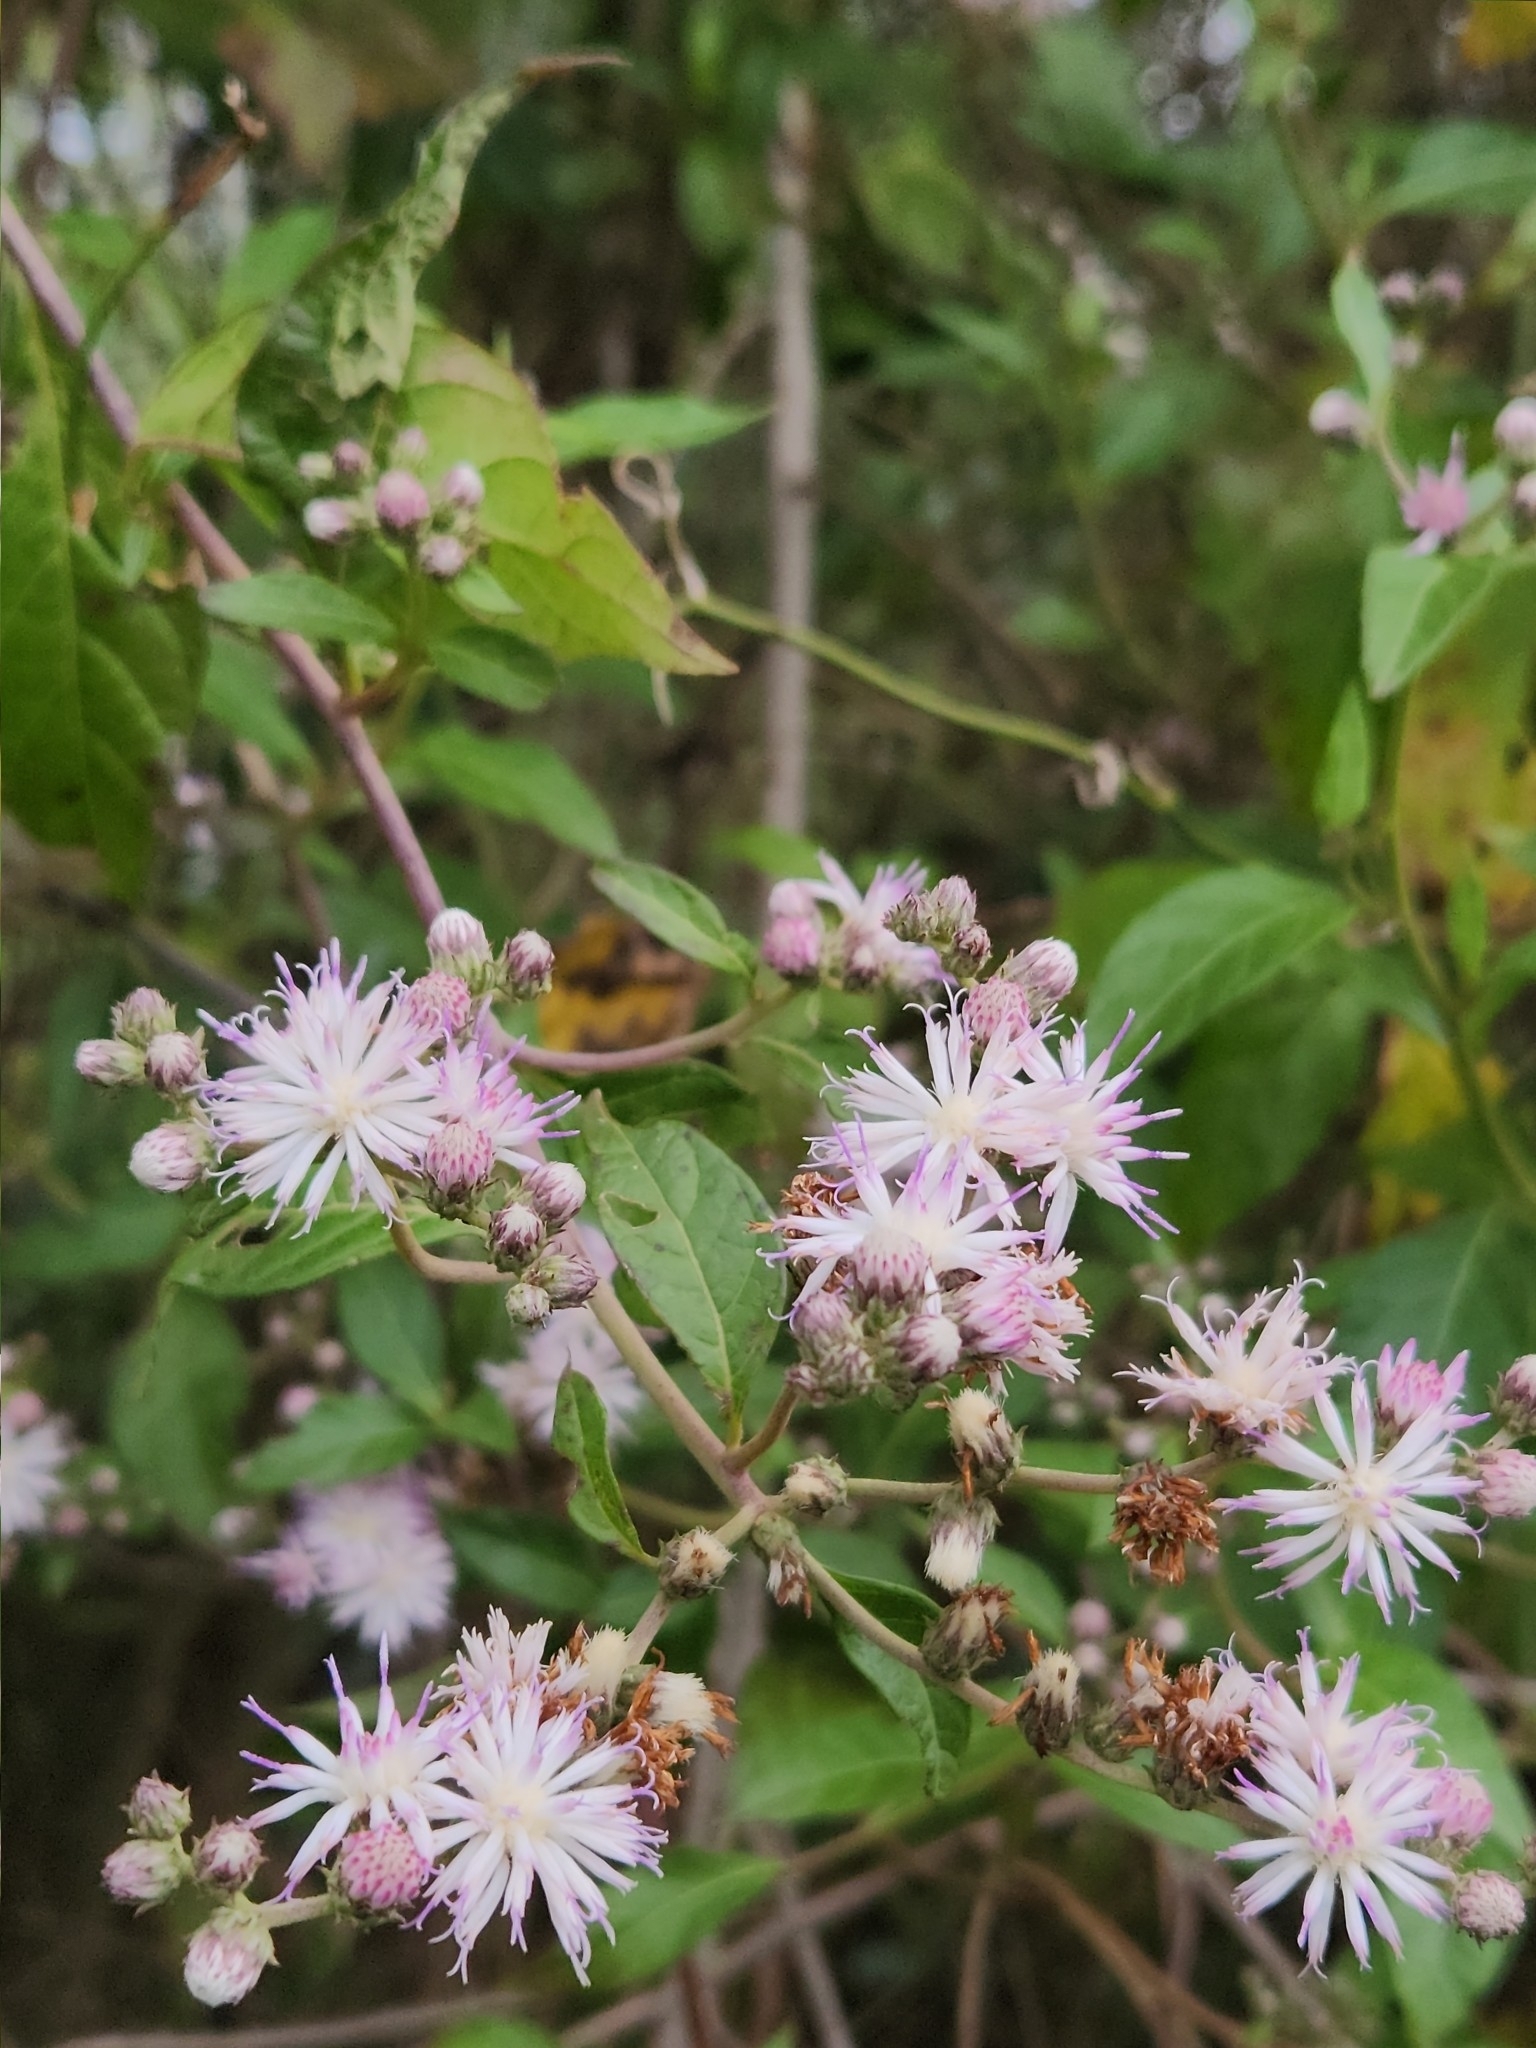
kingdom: Plantae
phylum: Tracheophyta
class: Magnoliopsida
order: Asterales
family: Asteraceae
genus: Cyrtocymura
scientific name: Cyrtocymura scorpioides
